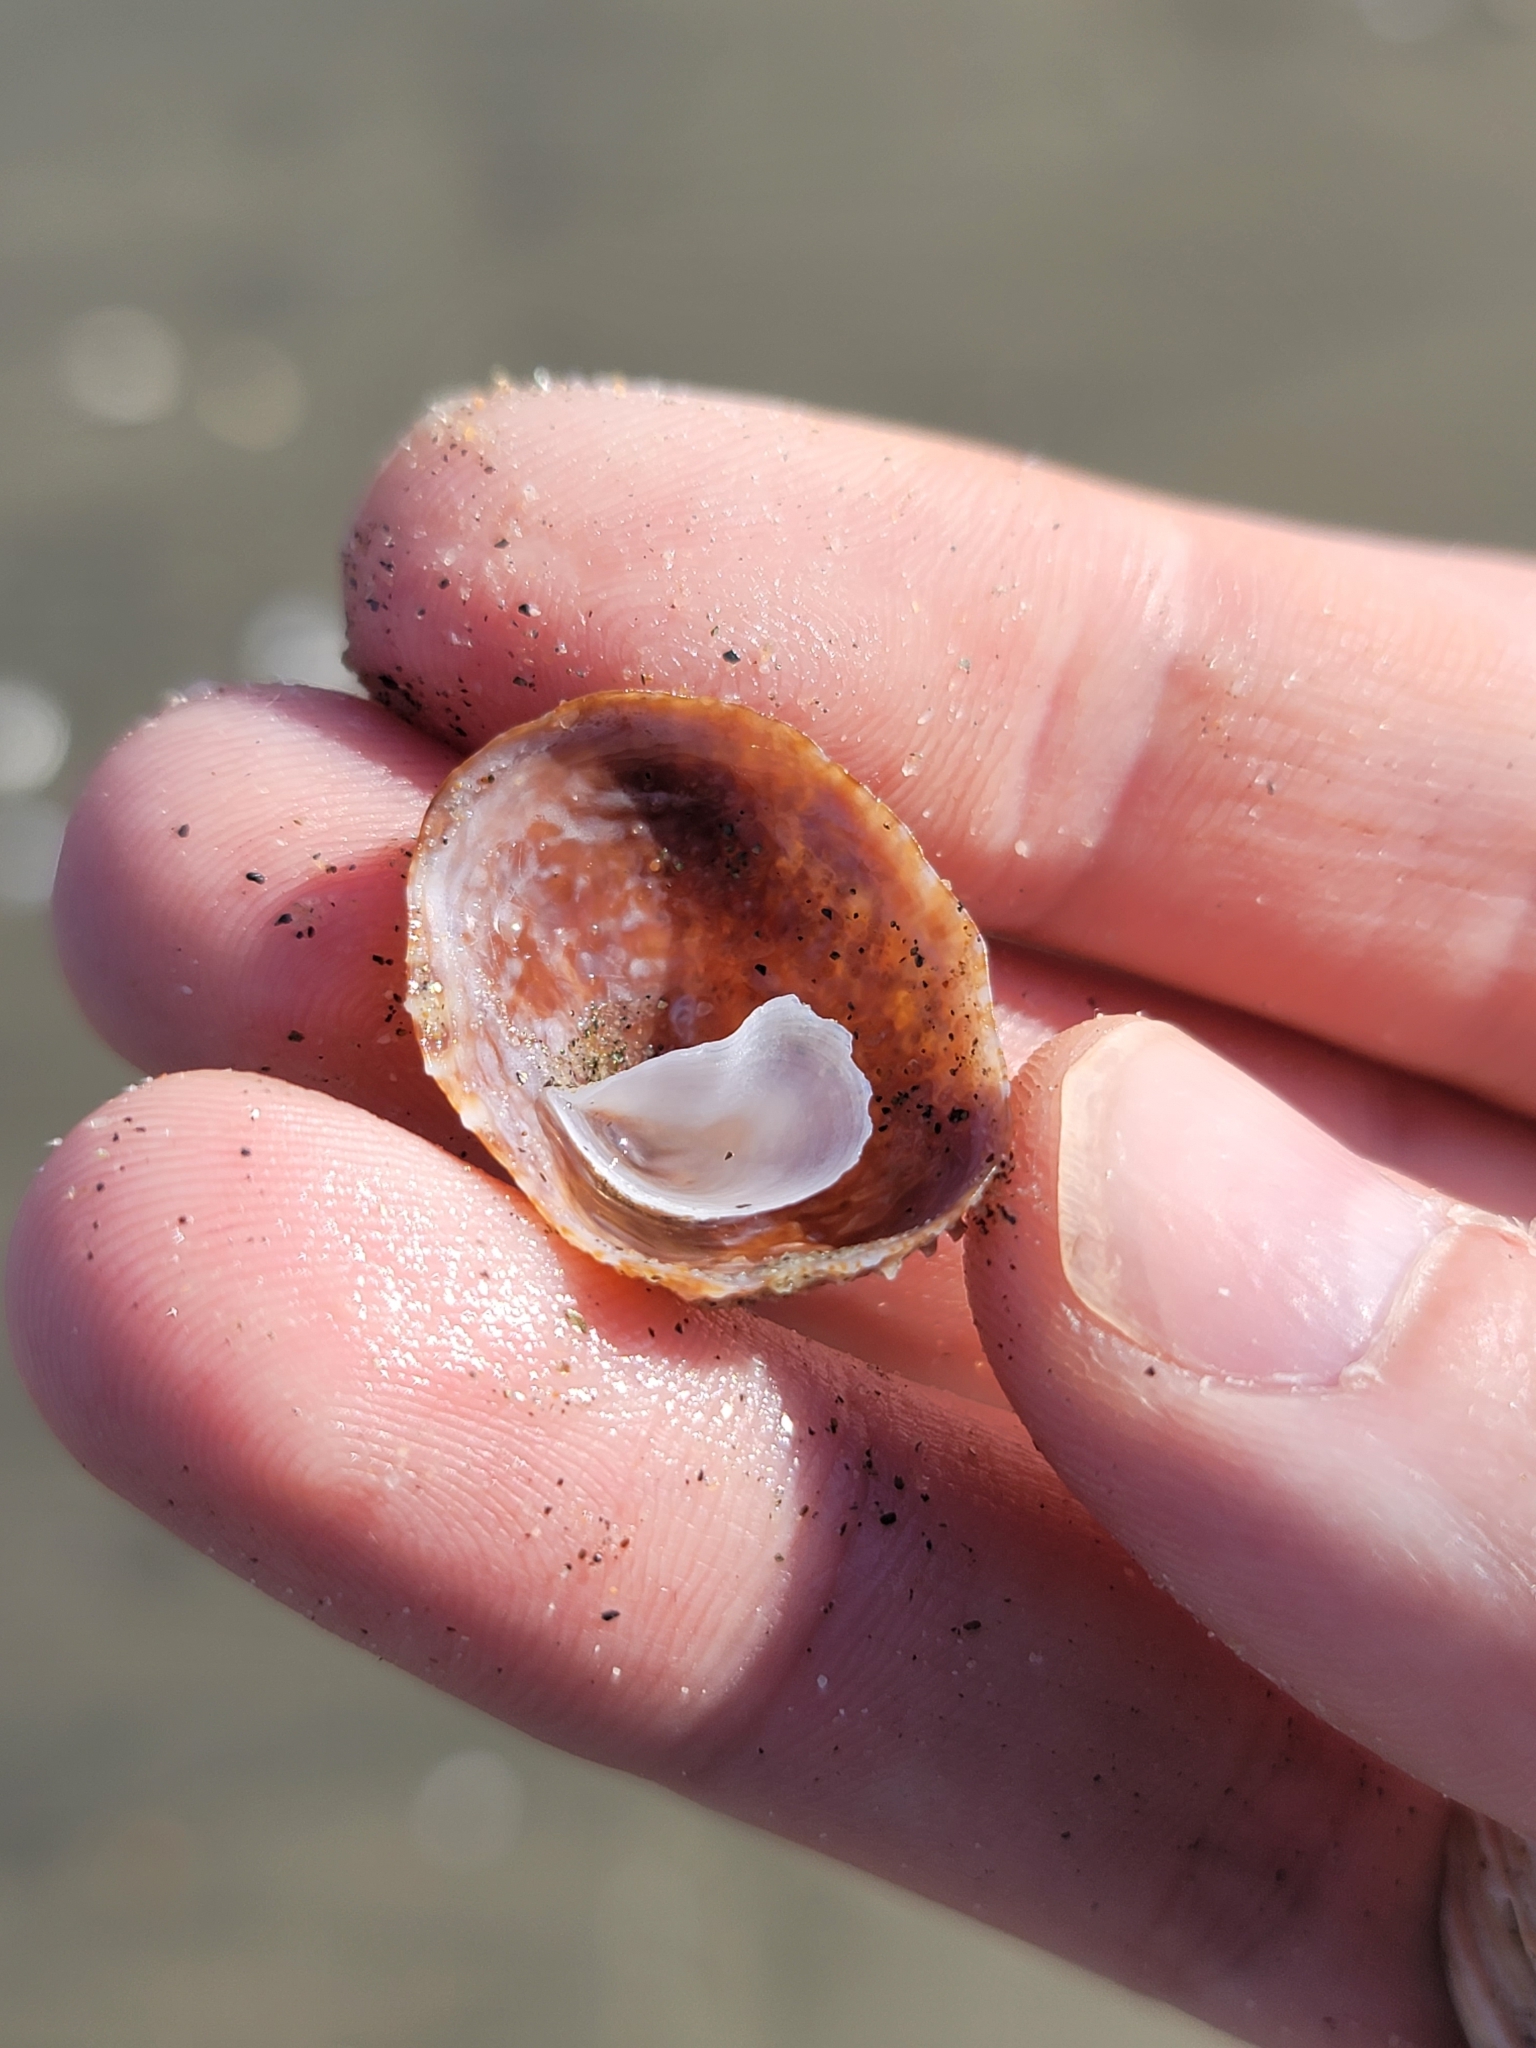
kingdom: Animalia
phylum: Mollusca
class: Gastropoda
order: Littorinimorpha
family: Calyptraeidae
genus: Crucibulum
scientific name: Crucibulum spinosum
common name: Spiny cup-and-saucer
